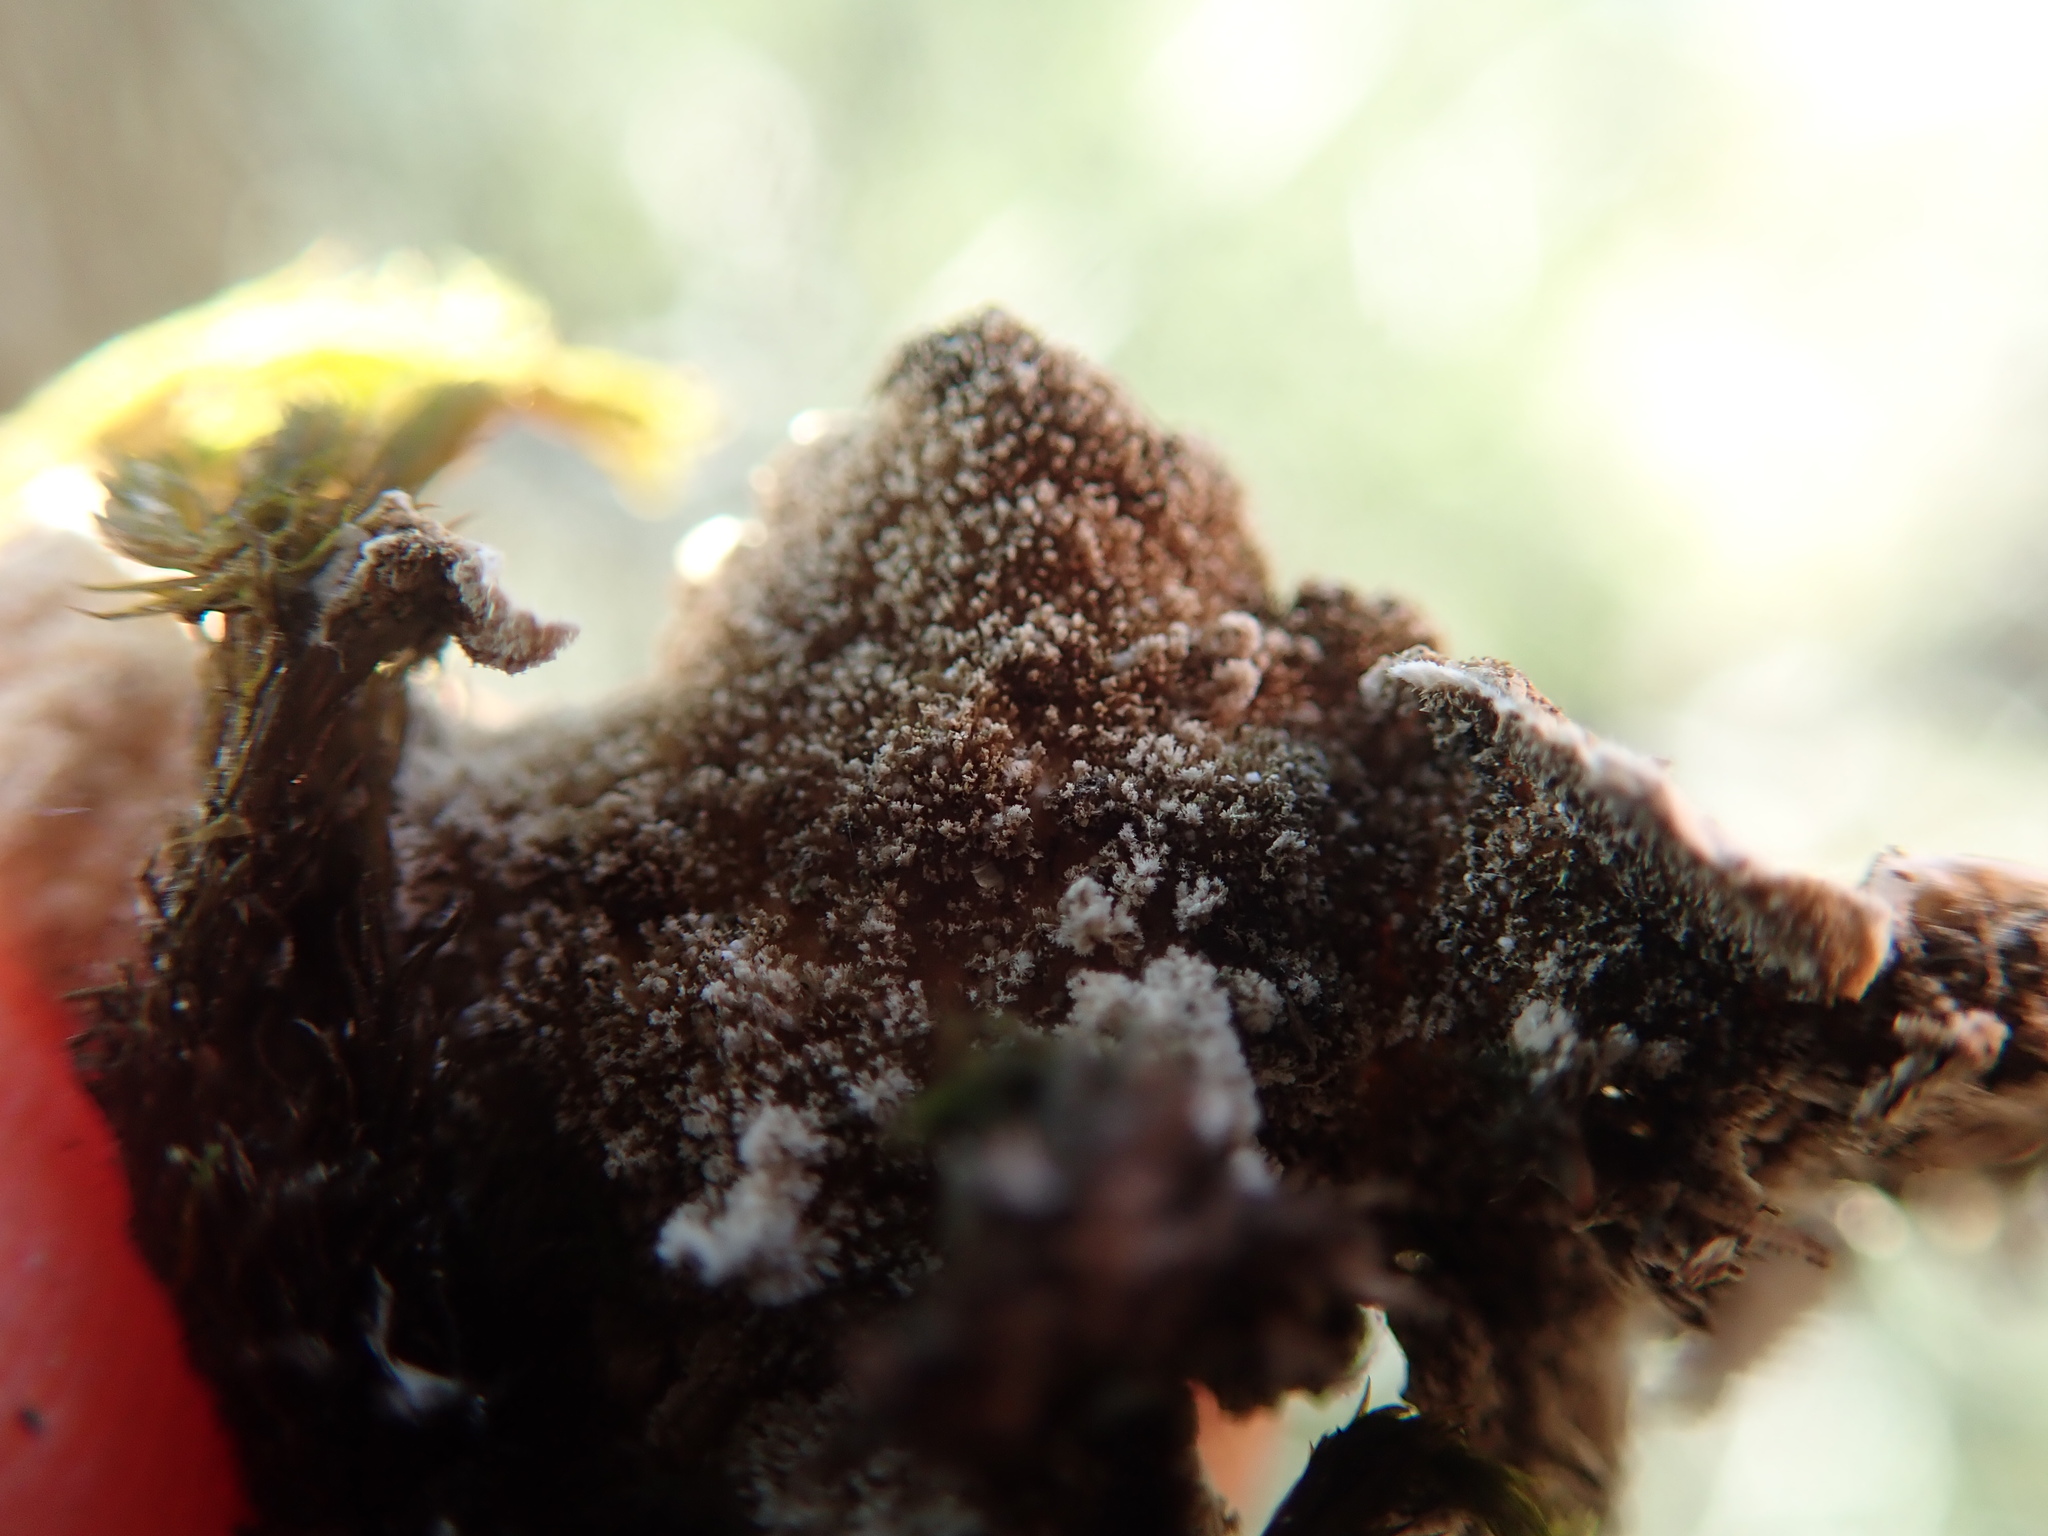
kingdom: Fungi
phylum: Ascomycota
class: Lecanoromycetes
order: Peltigerales
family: Lobariaceae
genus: Lobaria
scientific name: Lobaria anthraspis
